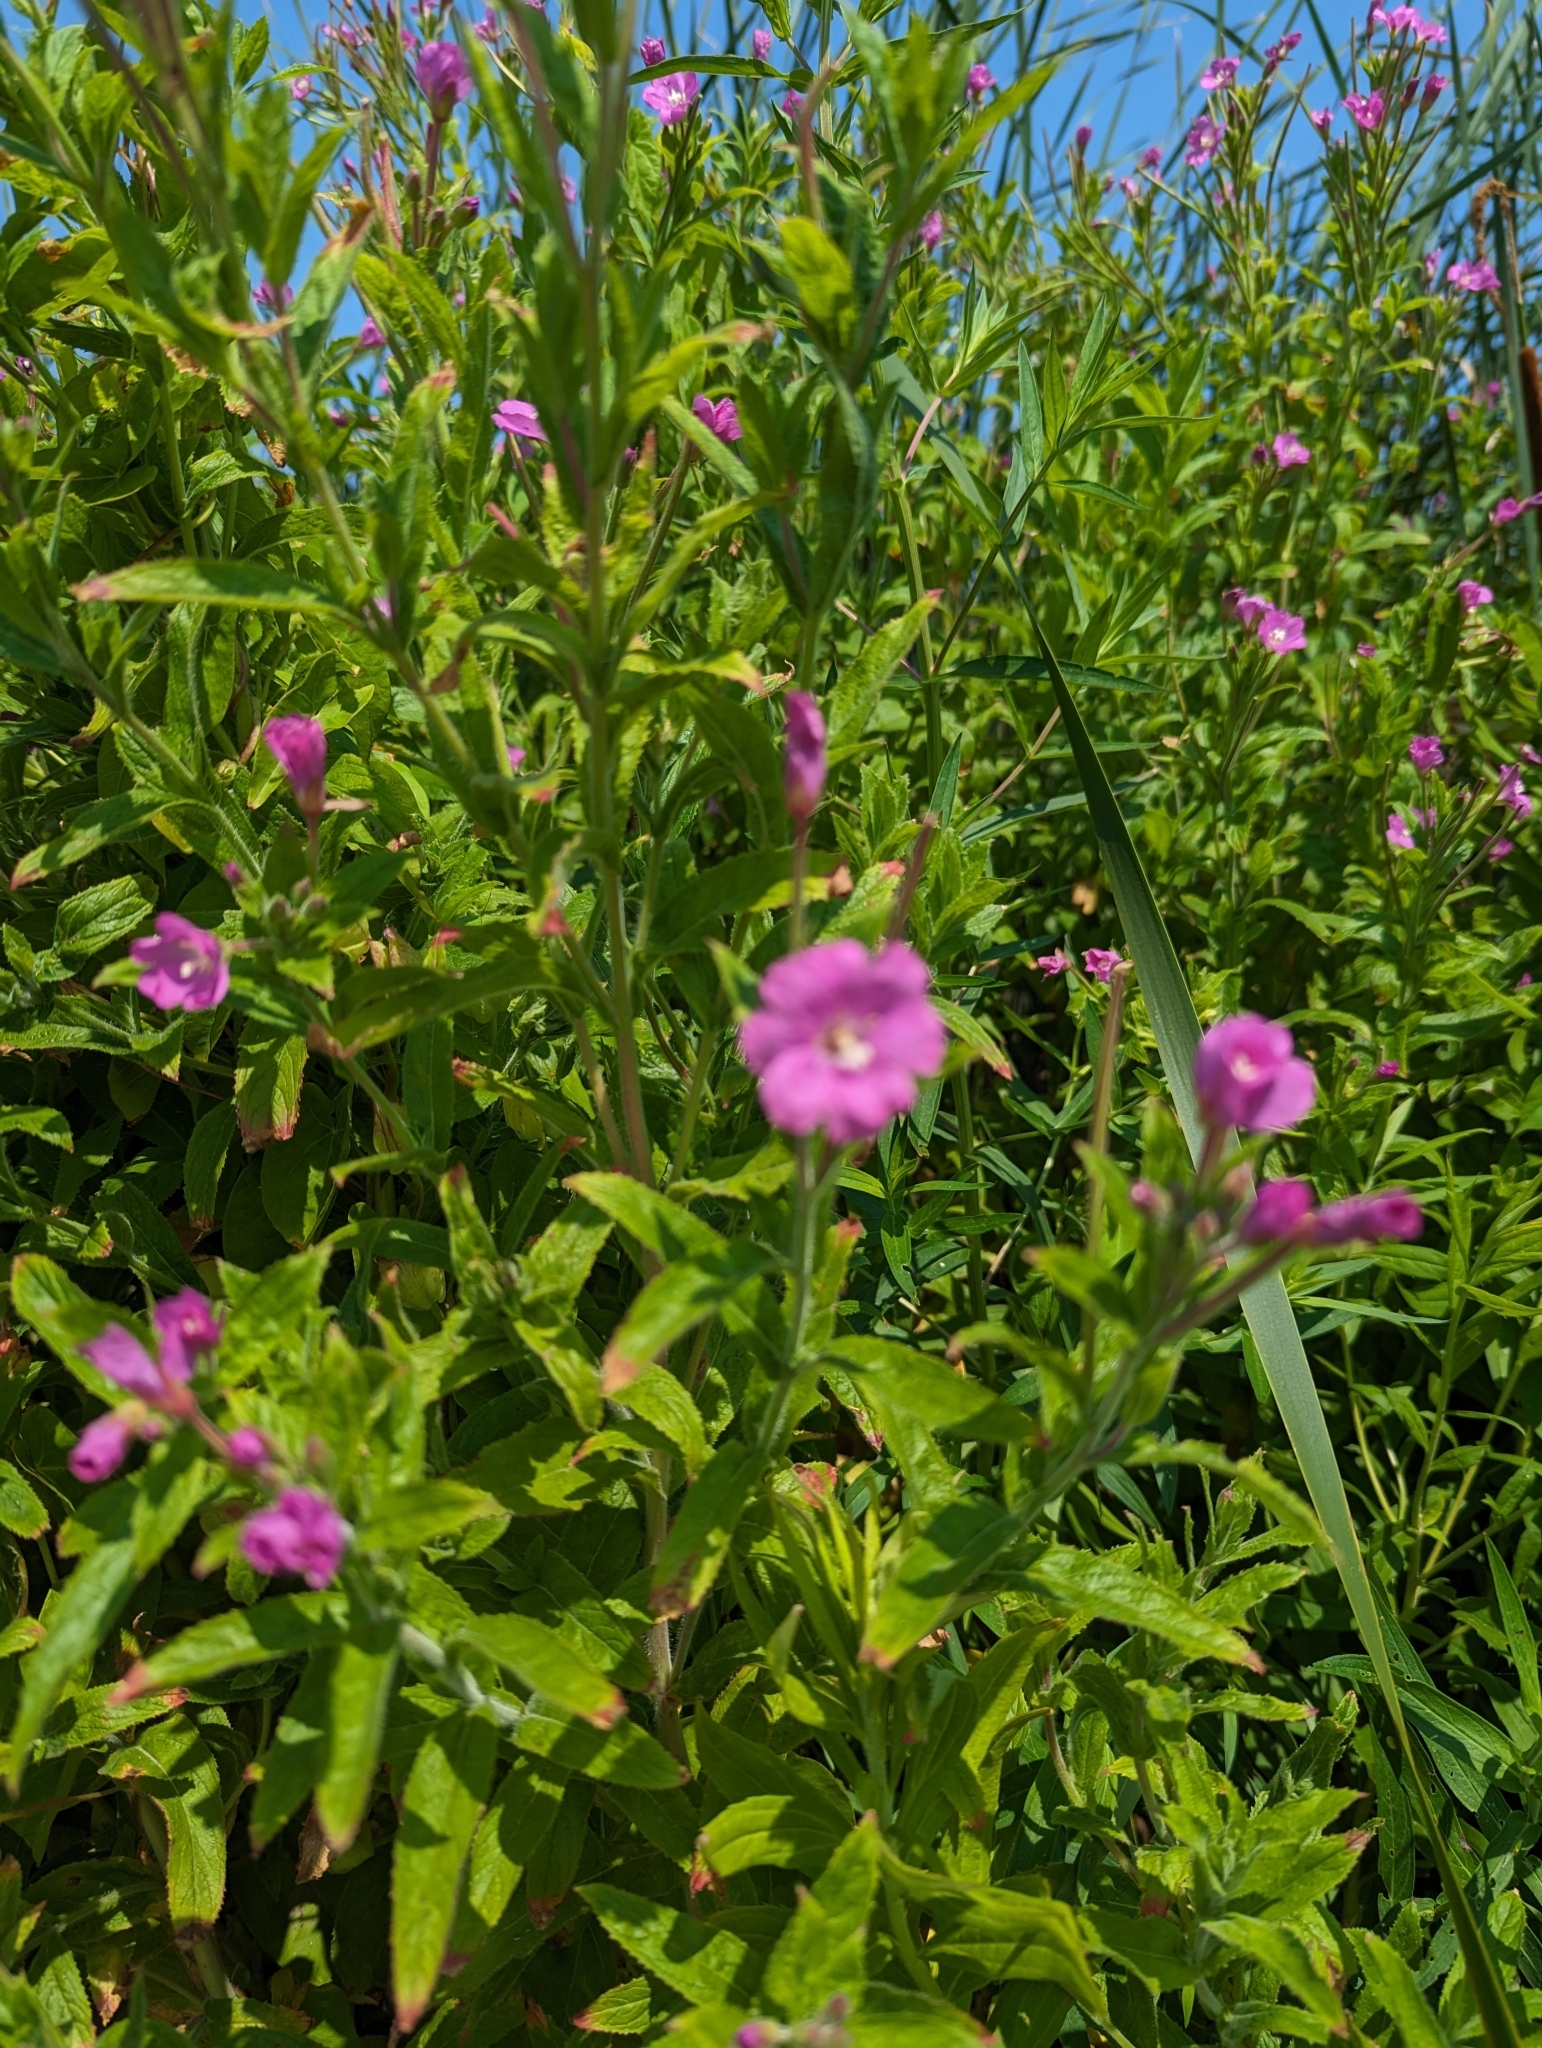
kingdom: Plantae
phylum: Tracheophyta
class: Magnoliopsida
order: Myrtales
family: Onagraceae
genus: Epilobium
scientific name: Epilobium hirsutum
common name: Great willowherb
